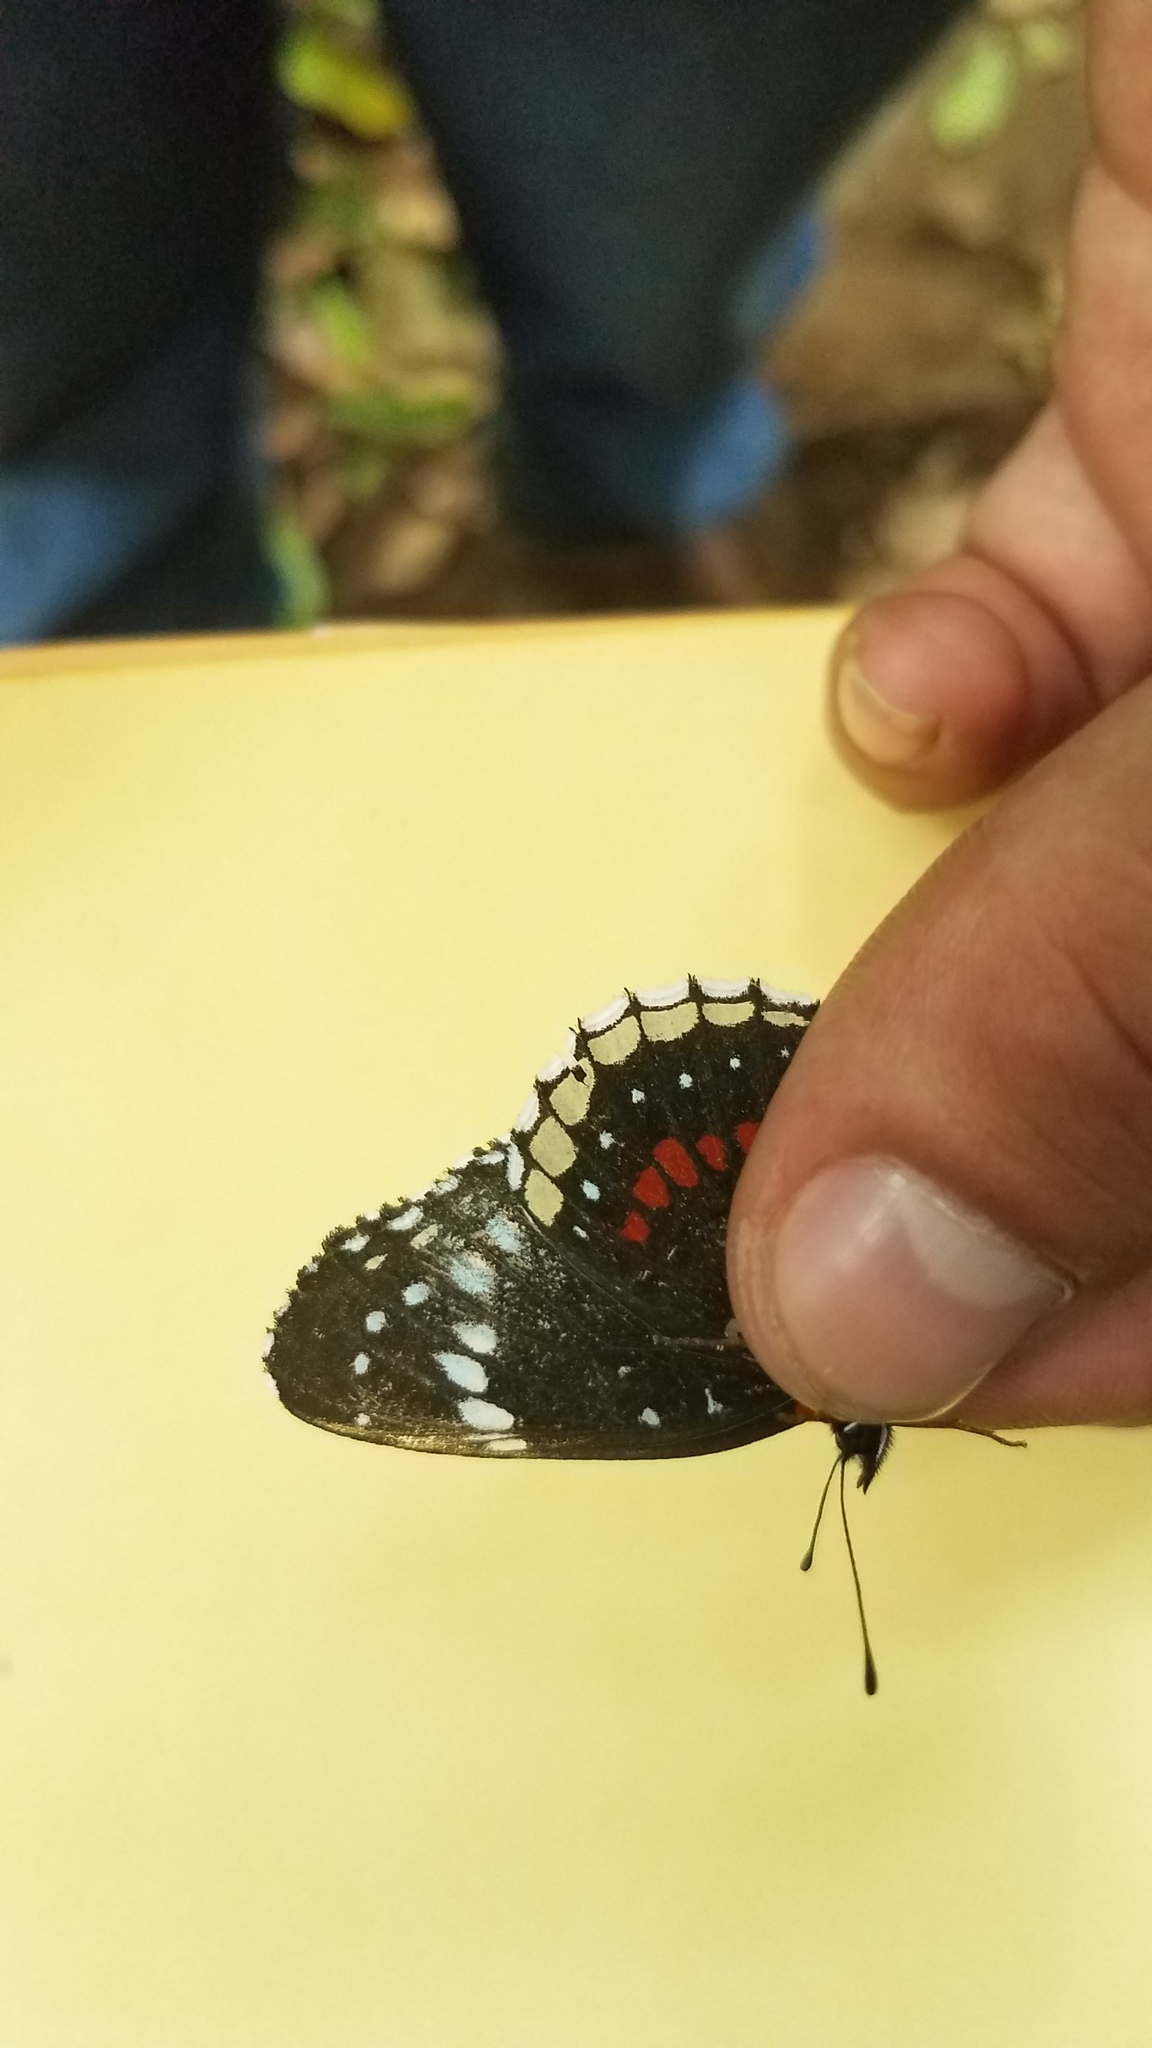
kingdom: Animalia
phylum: Arthropoda
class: Insecta
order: Lepidoptera
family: Nymphalidae
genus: Chlosyne
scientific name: Chlosyne hippodrome
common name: Simple patch
